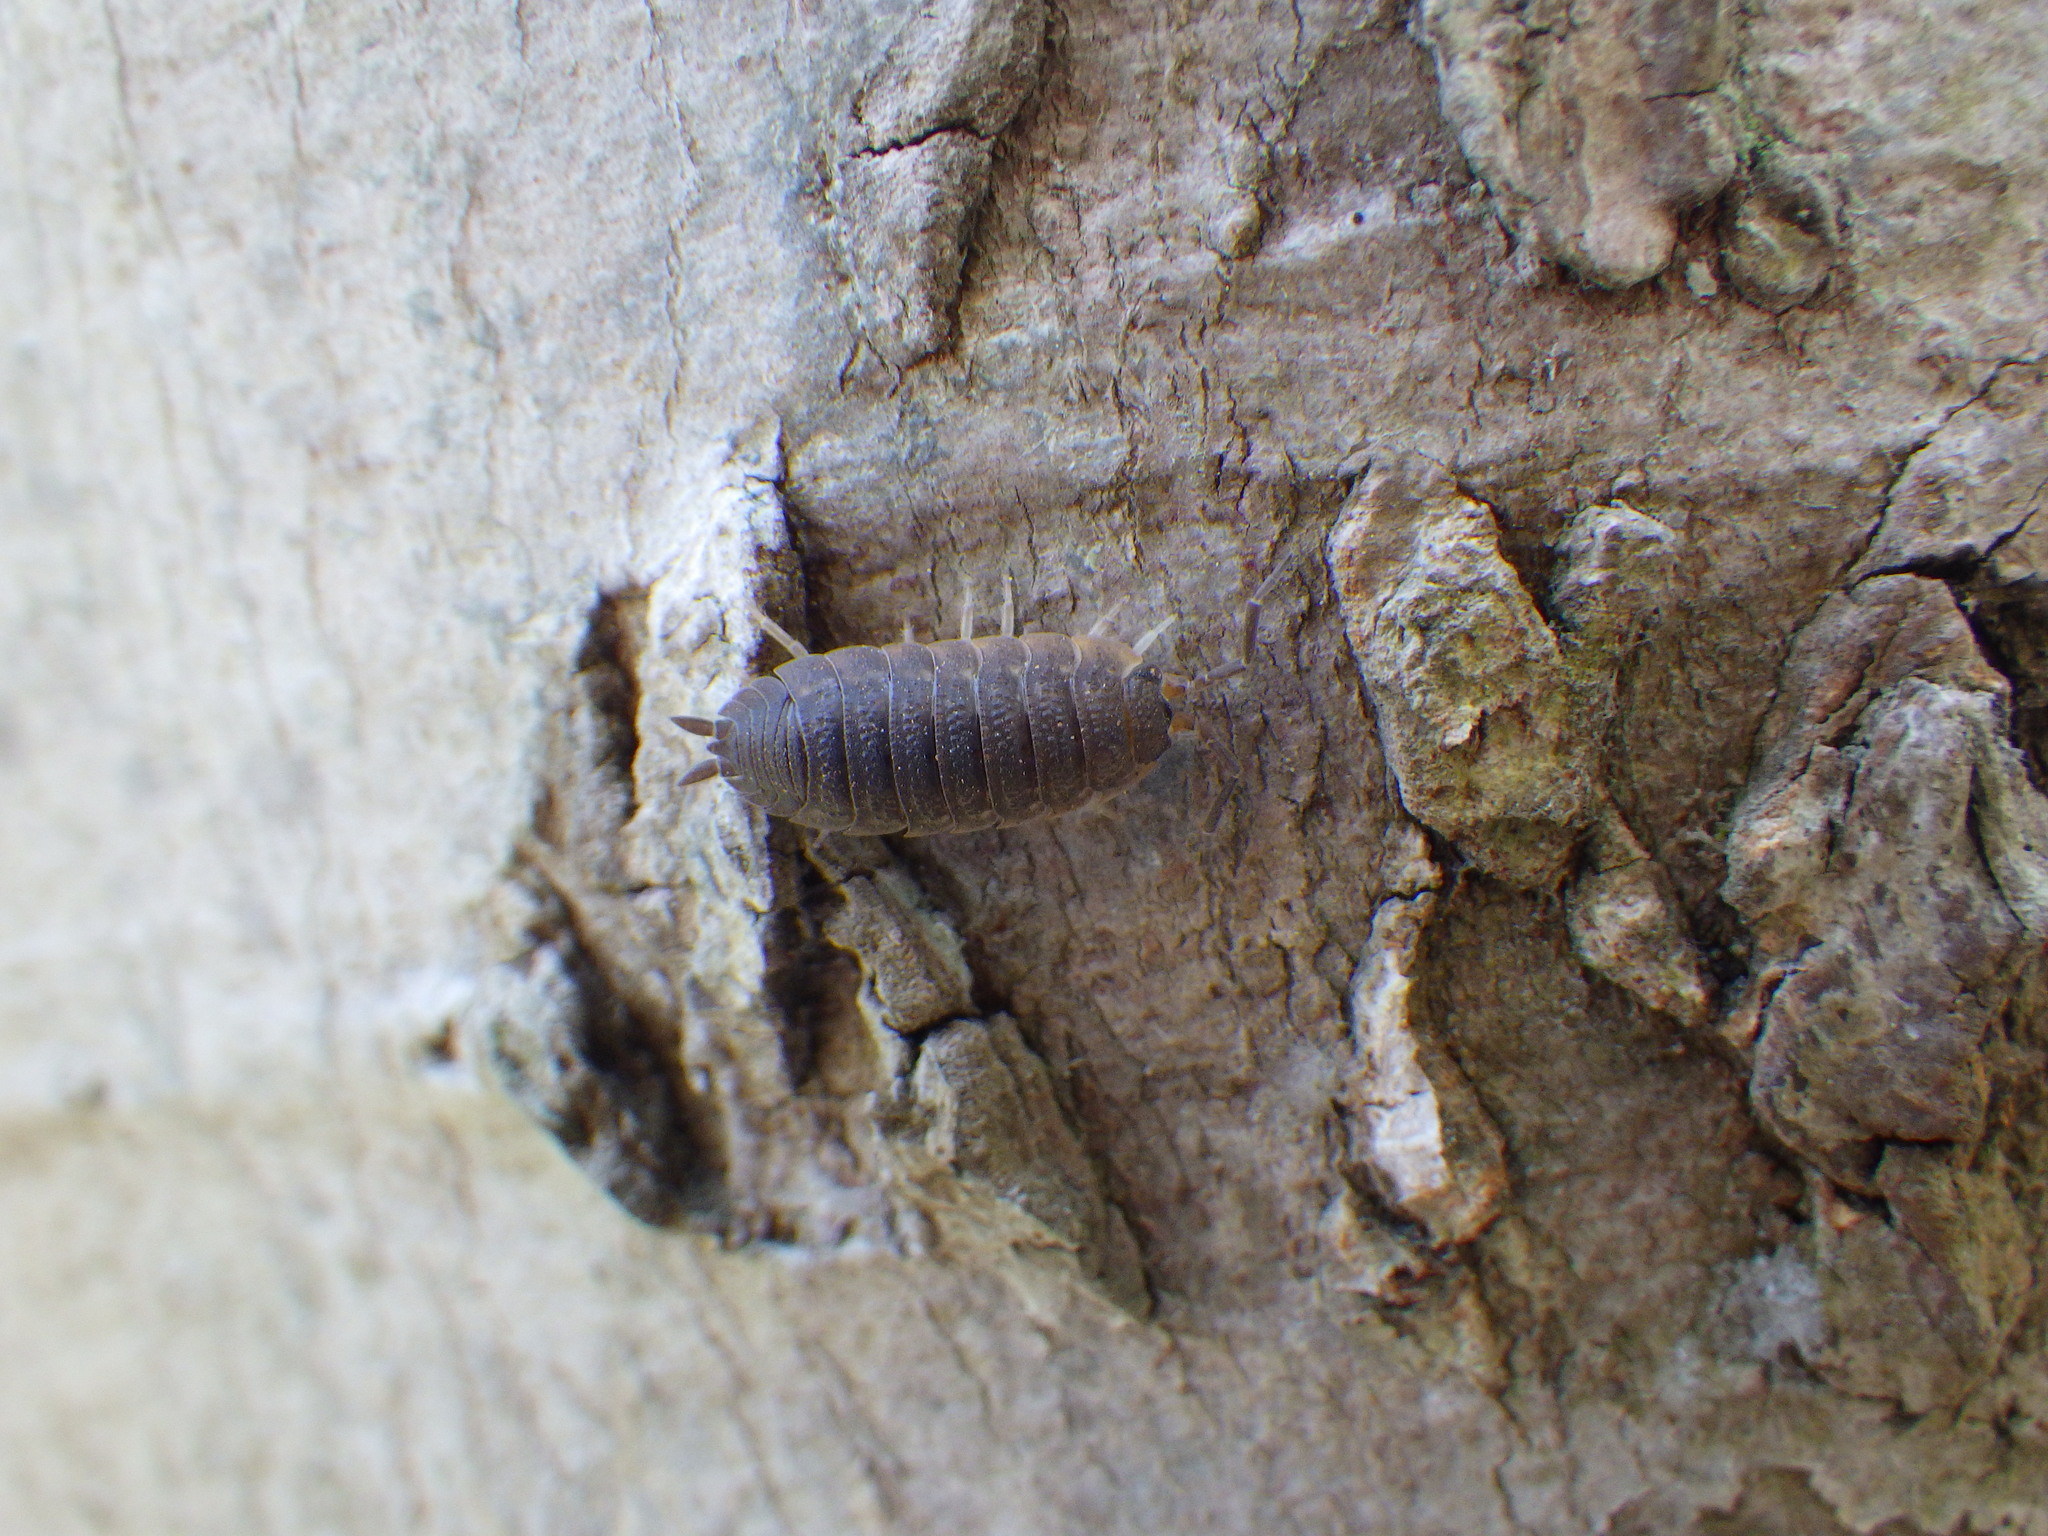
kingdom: Animalia
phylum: Arthropoda
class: Malacostraca
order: Isopoda
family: Porcellionidae
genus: Porcellio
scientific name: Porcellio scaber
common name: Common rough woodlouse
